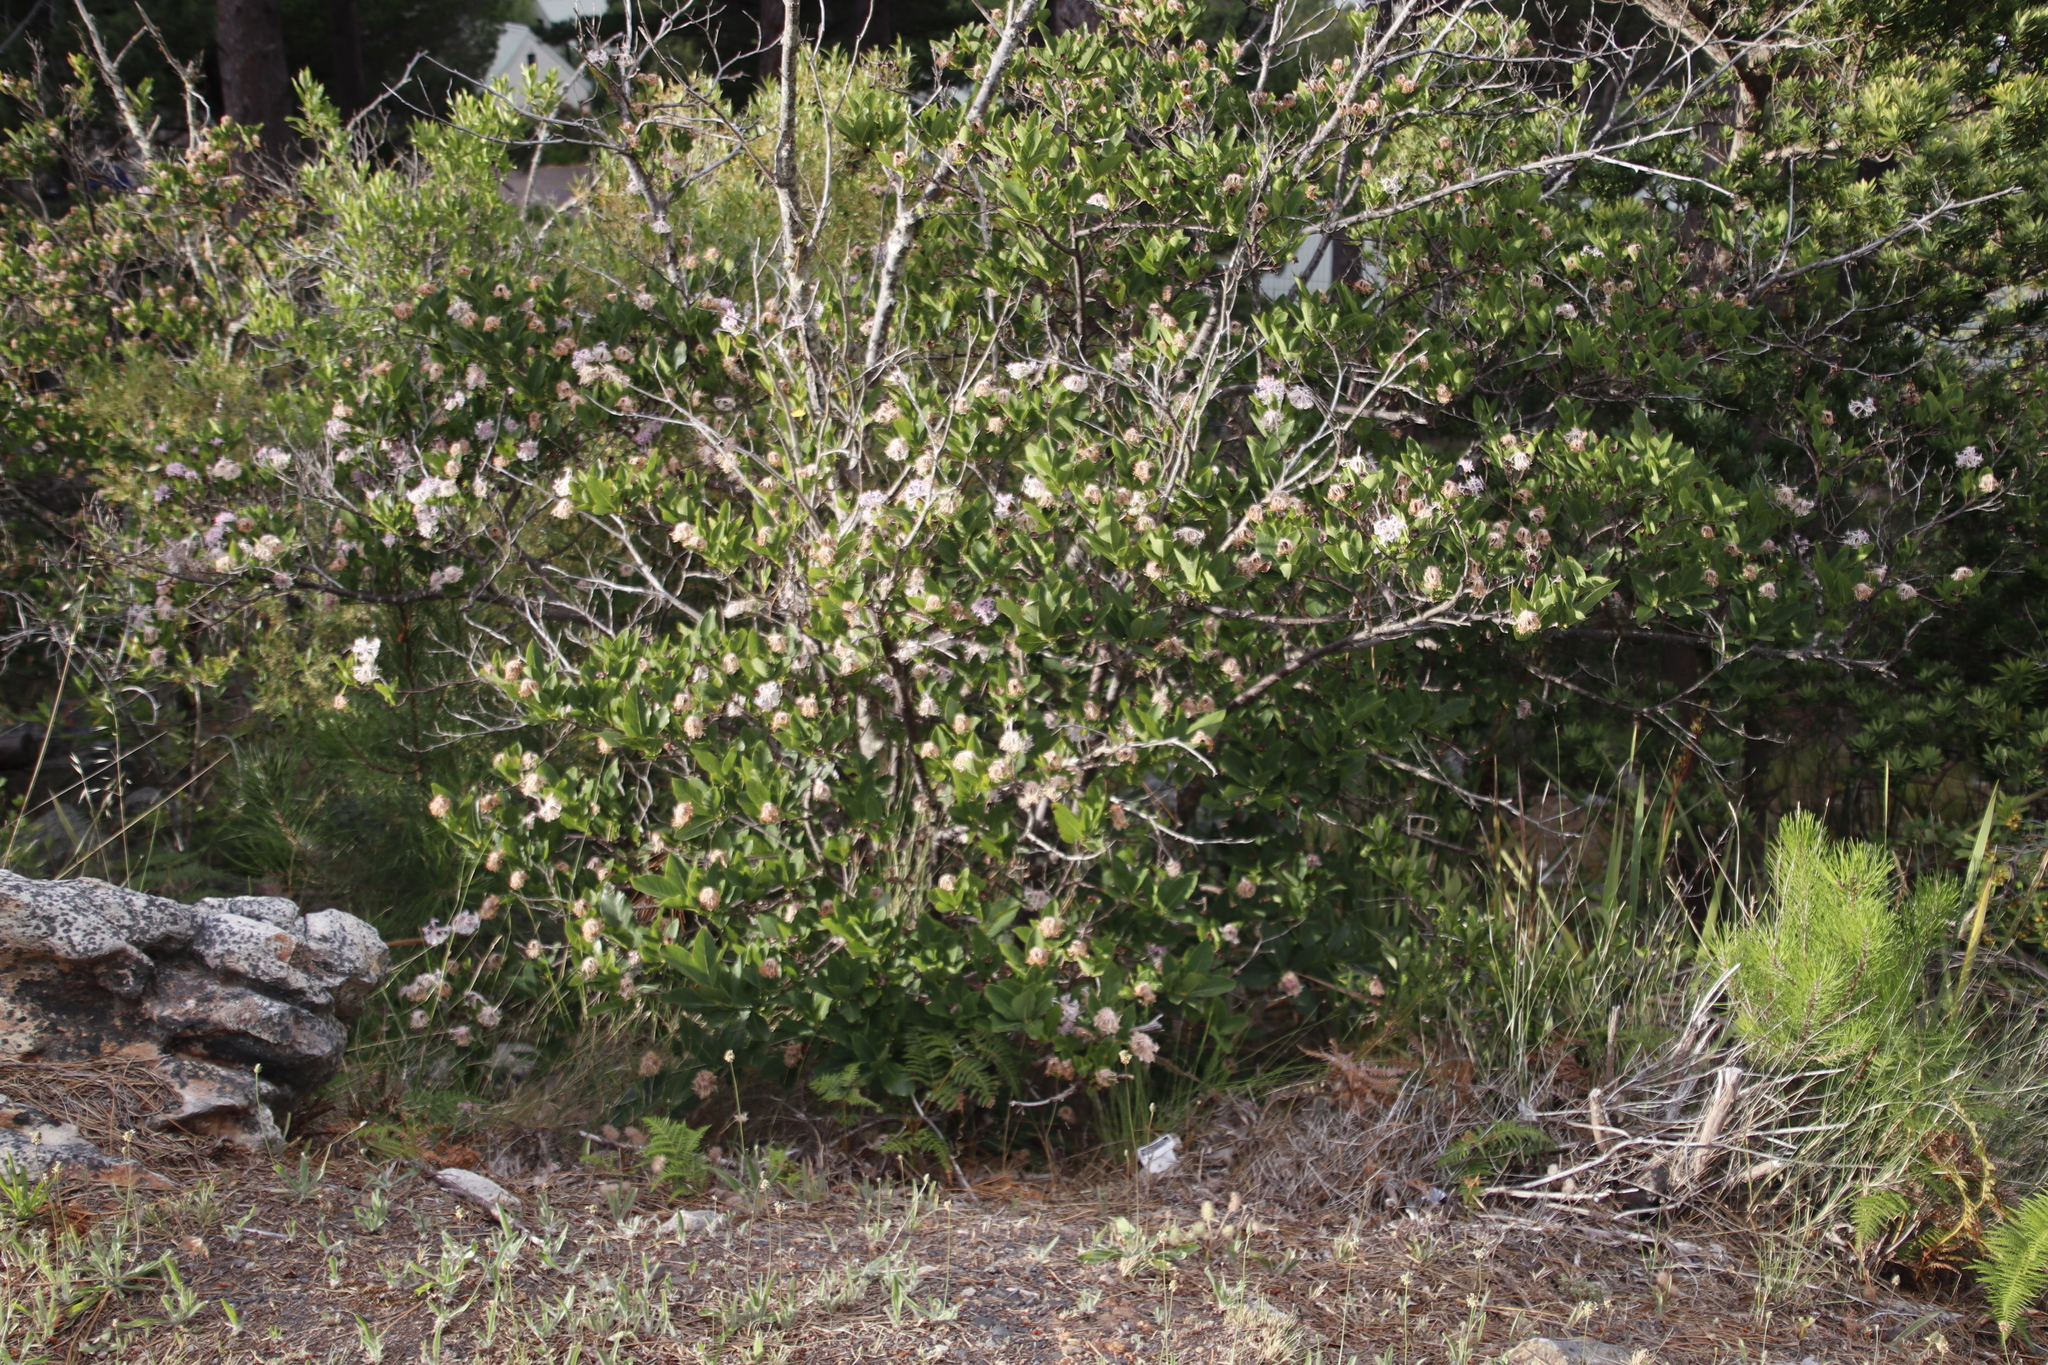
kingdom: Plantae
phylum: Tracheophyta
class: Magnoliopsida
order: Malvales
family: Thymelaeaceae
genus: Dais
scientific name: Dais cotinifolia
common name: Pompon tree
